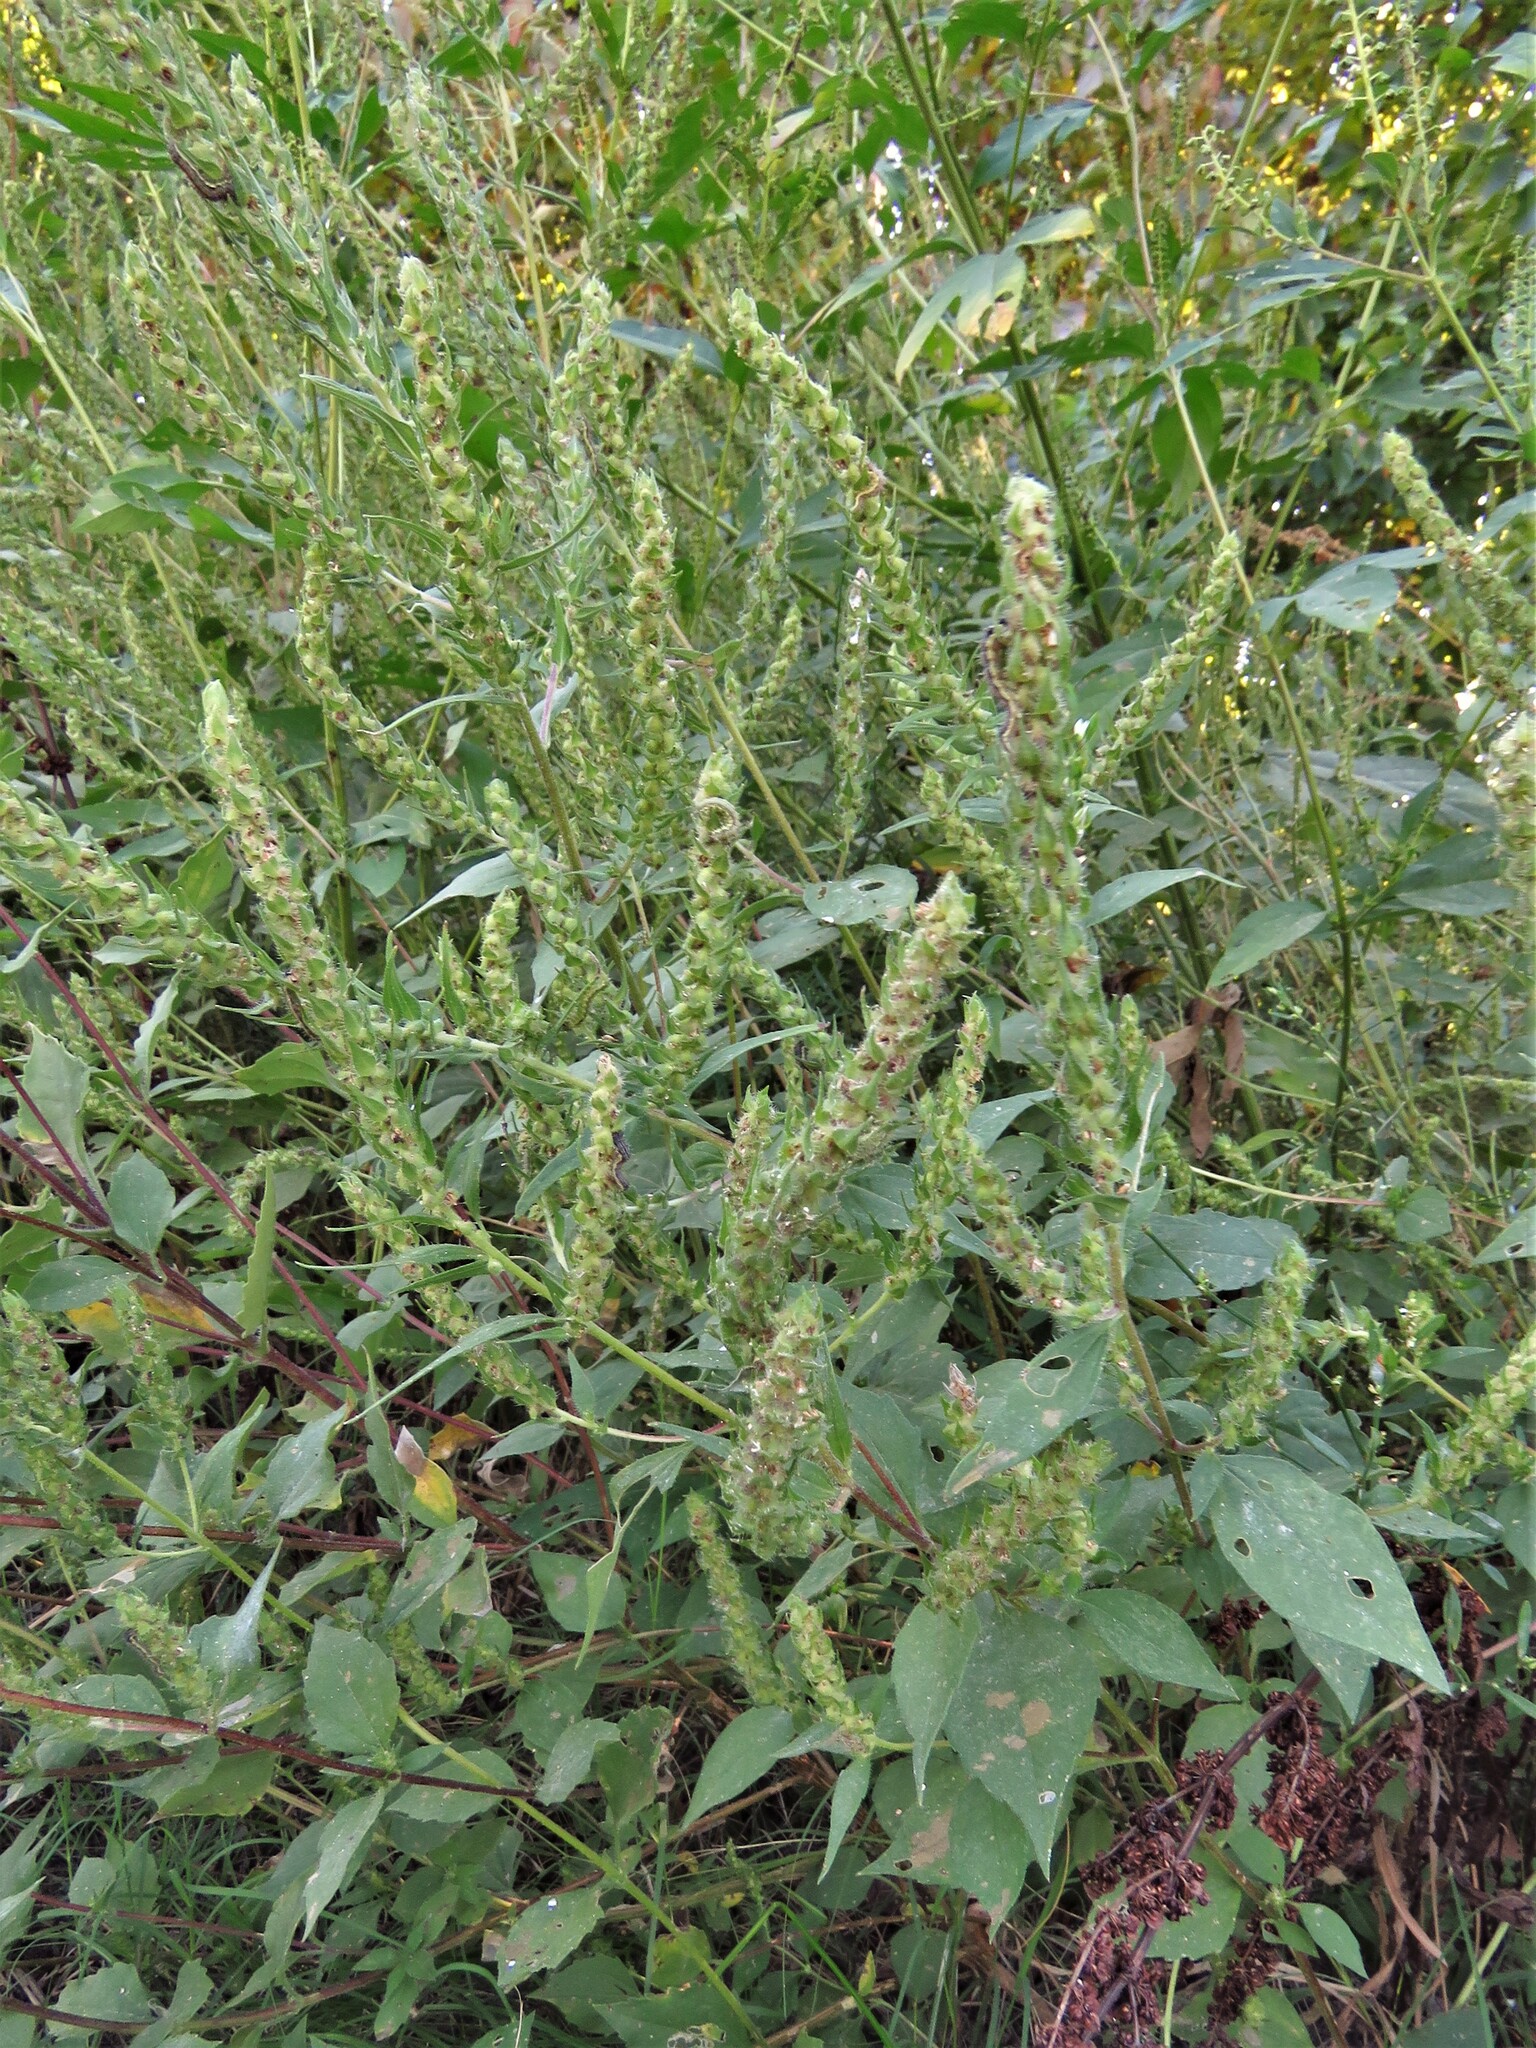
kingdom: Plantae
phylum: Tracheophyta
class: Magnoliopsida
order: Asterales
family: Asteraceae
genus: Iva
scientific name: Iva annua
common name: Marsh-elder
